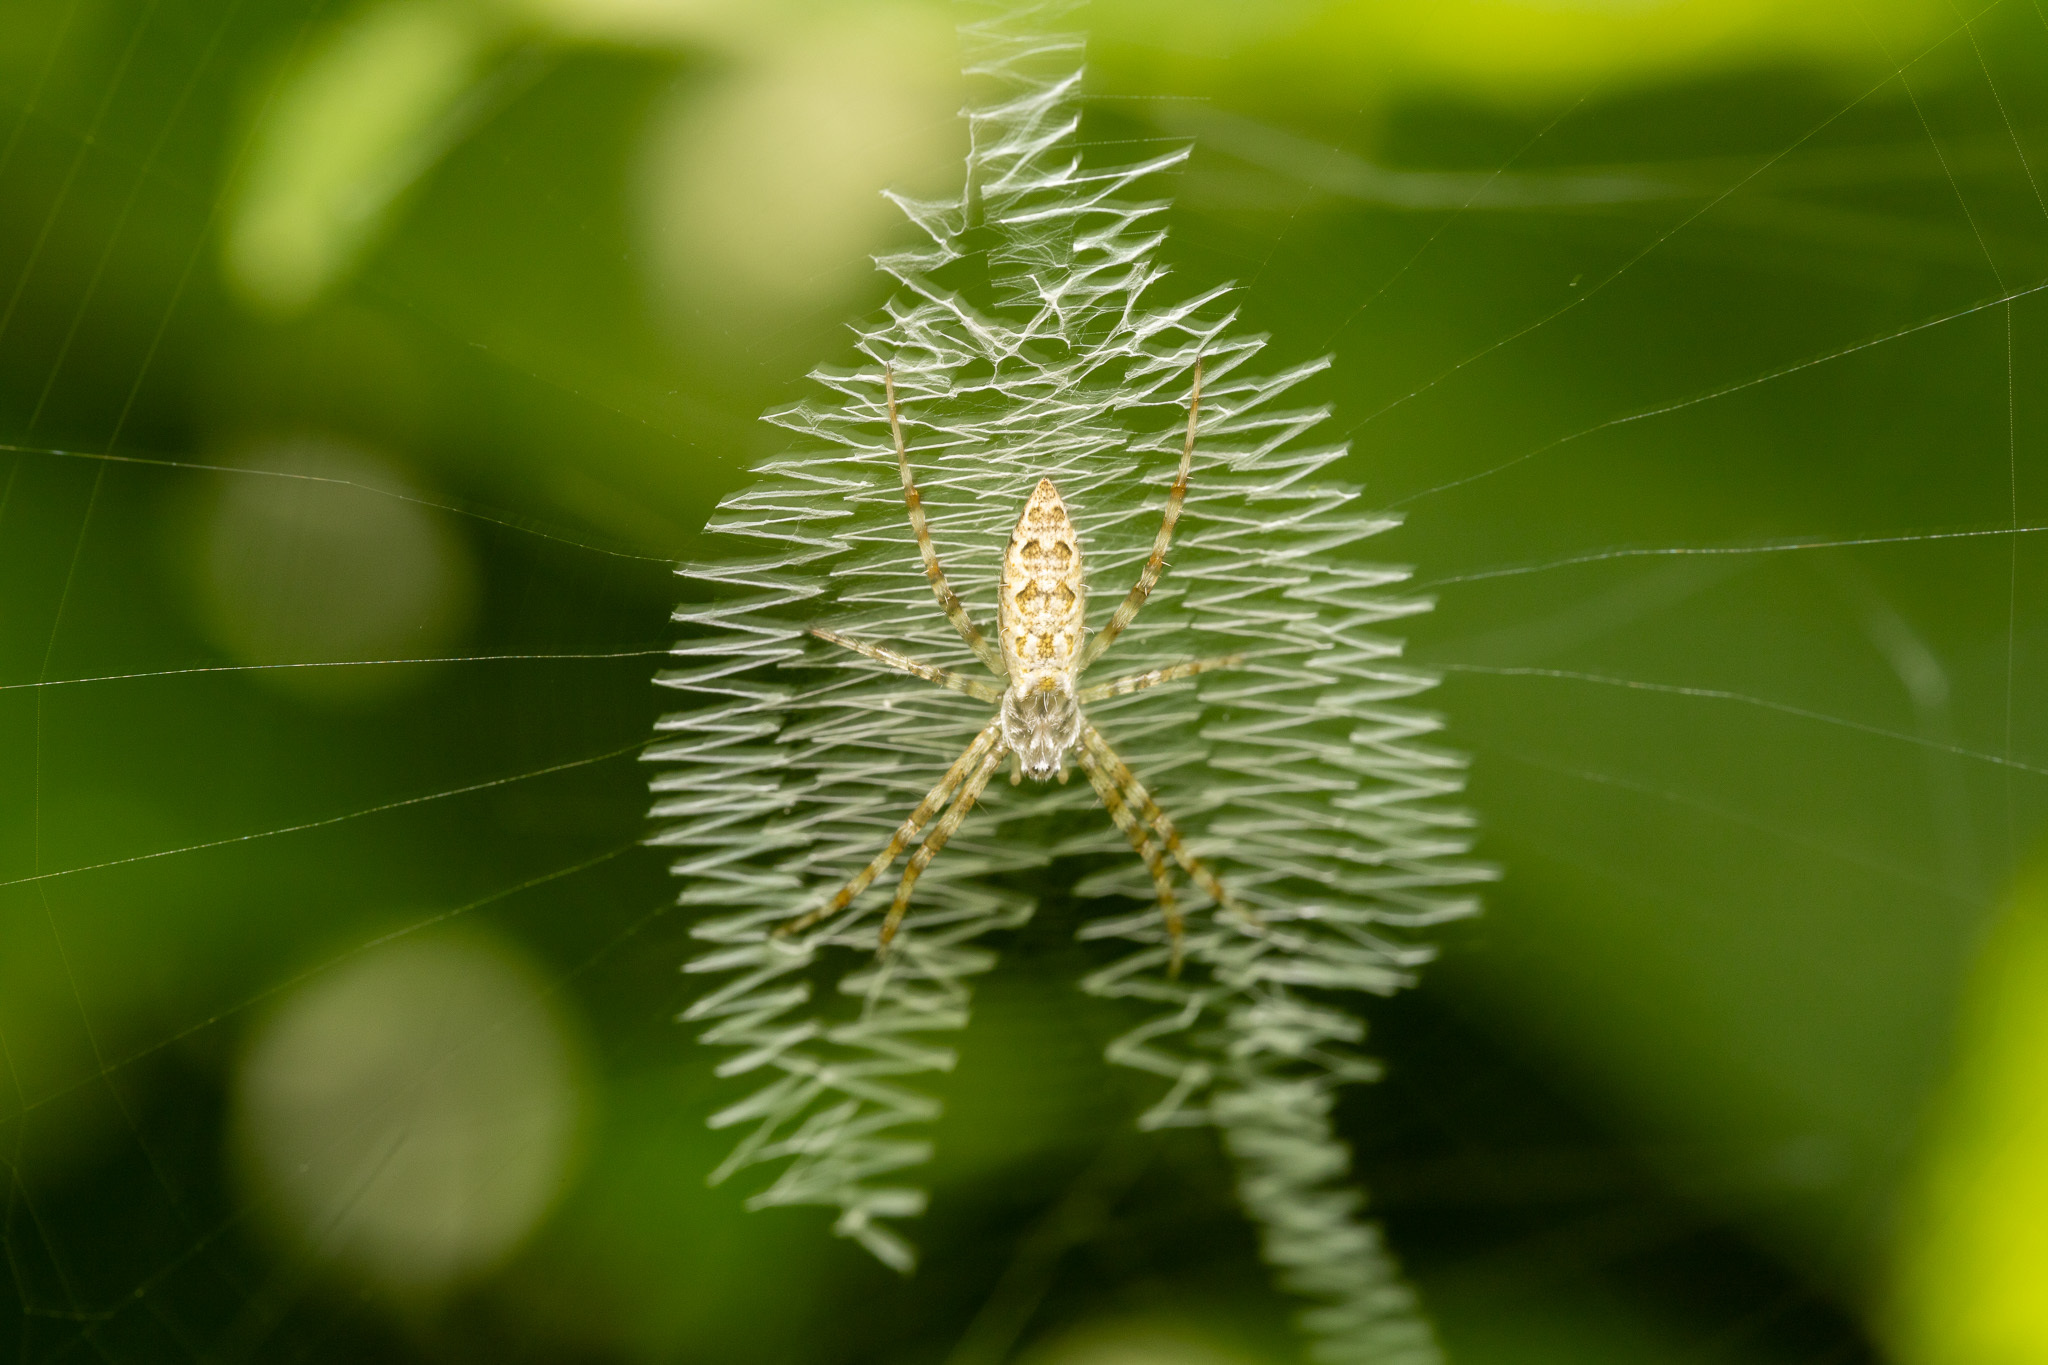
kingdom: Animalia
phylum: Arthropoda
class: Arachnida
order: Araneae
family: Araneidae
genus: Argiope
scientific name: Argiope aurantia
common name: Orb weavers
